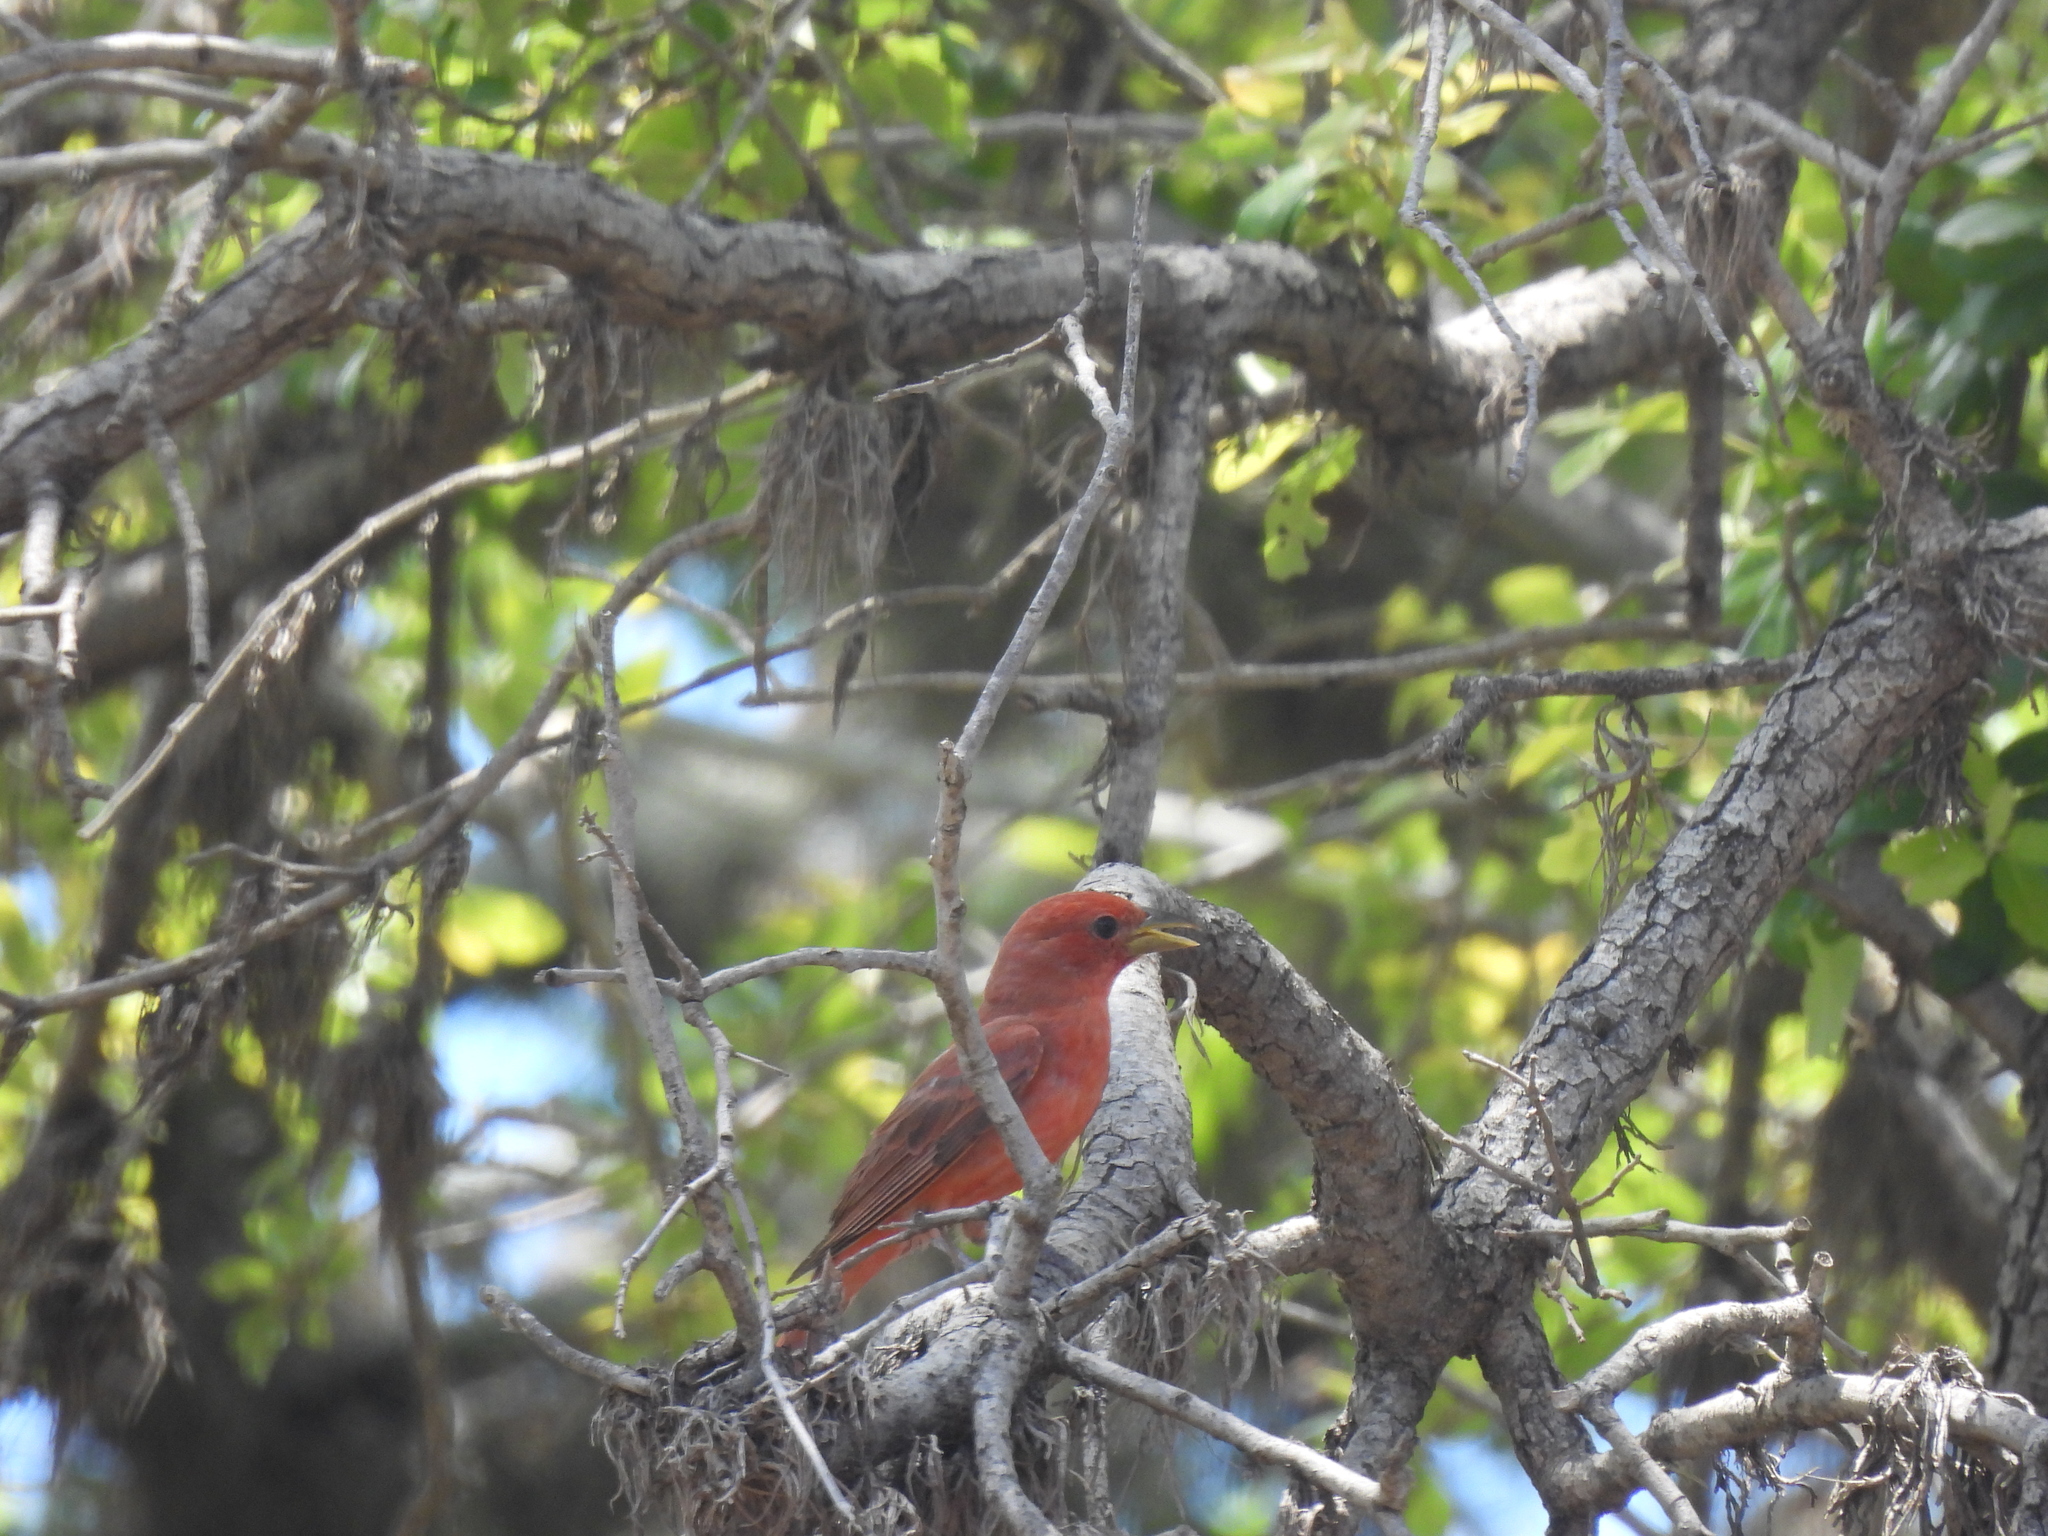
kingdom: Animalia
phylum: Chordata
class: Aves
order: Passeriformes
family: Cardinalidae
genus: Piranga
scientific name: Piranga rubra
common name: Summer tanager
